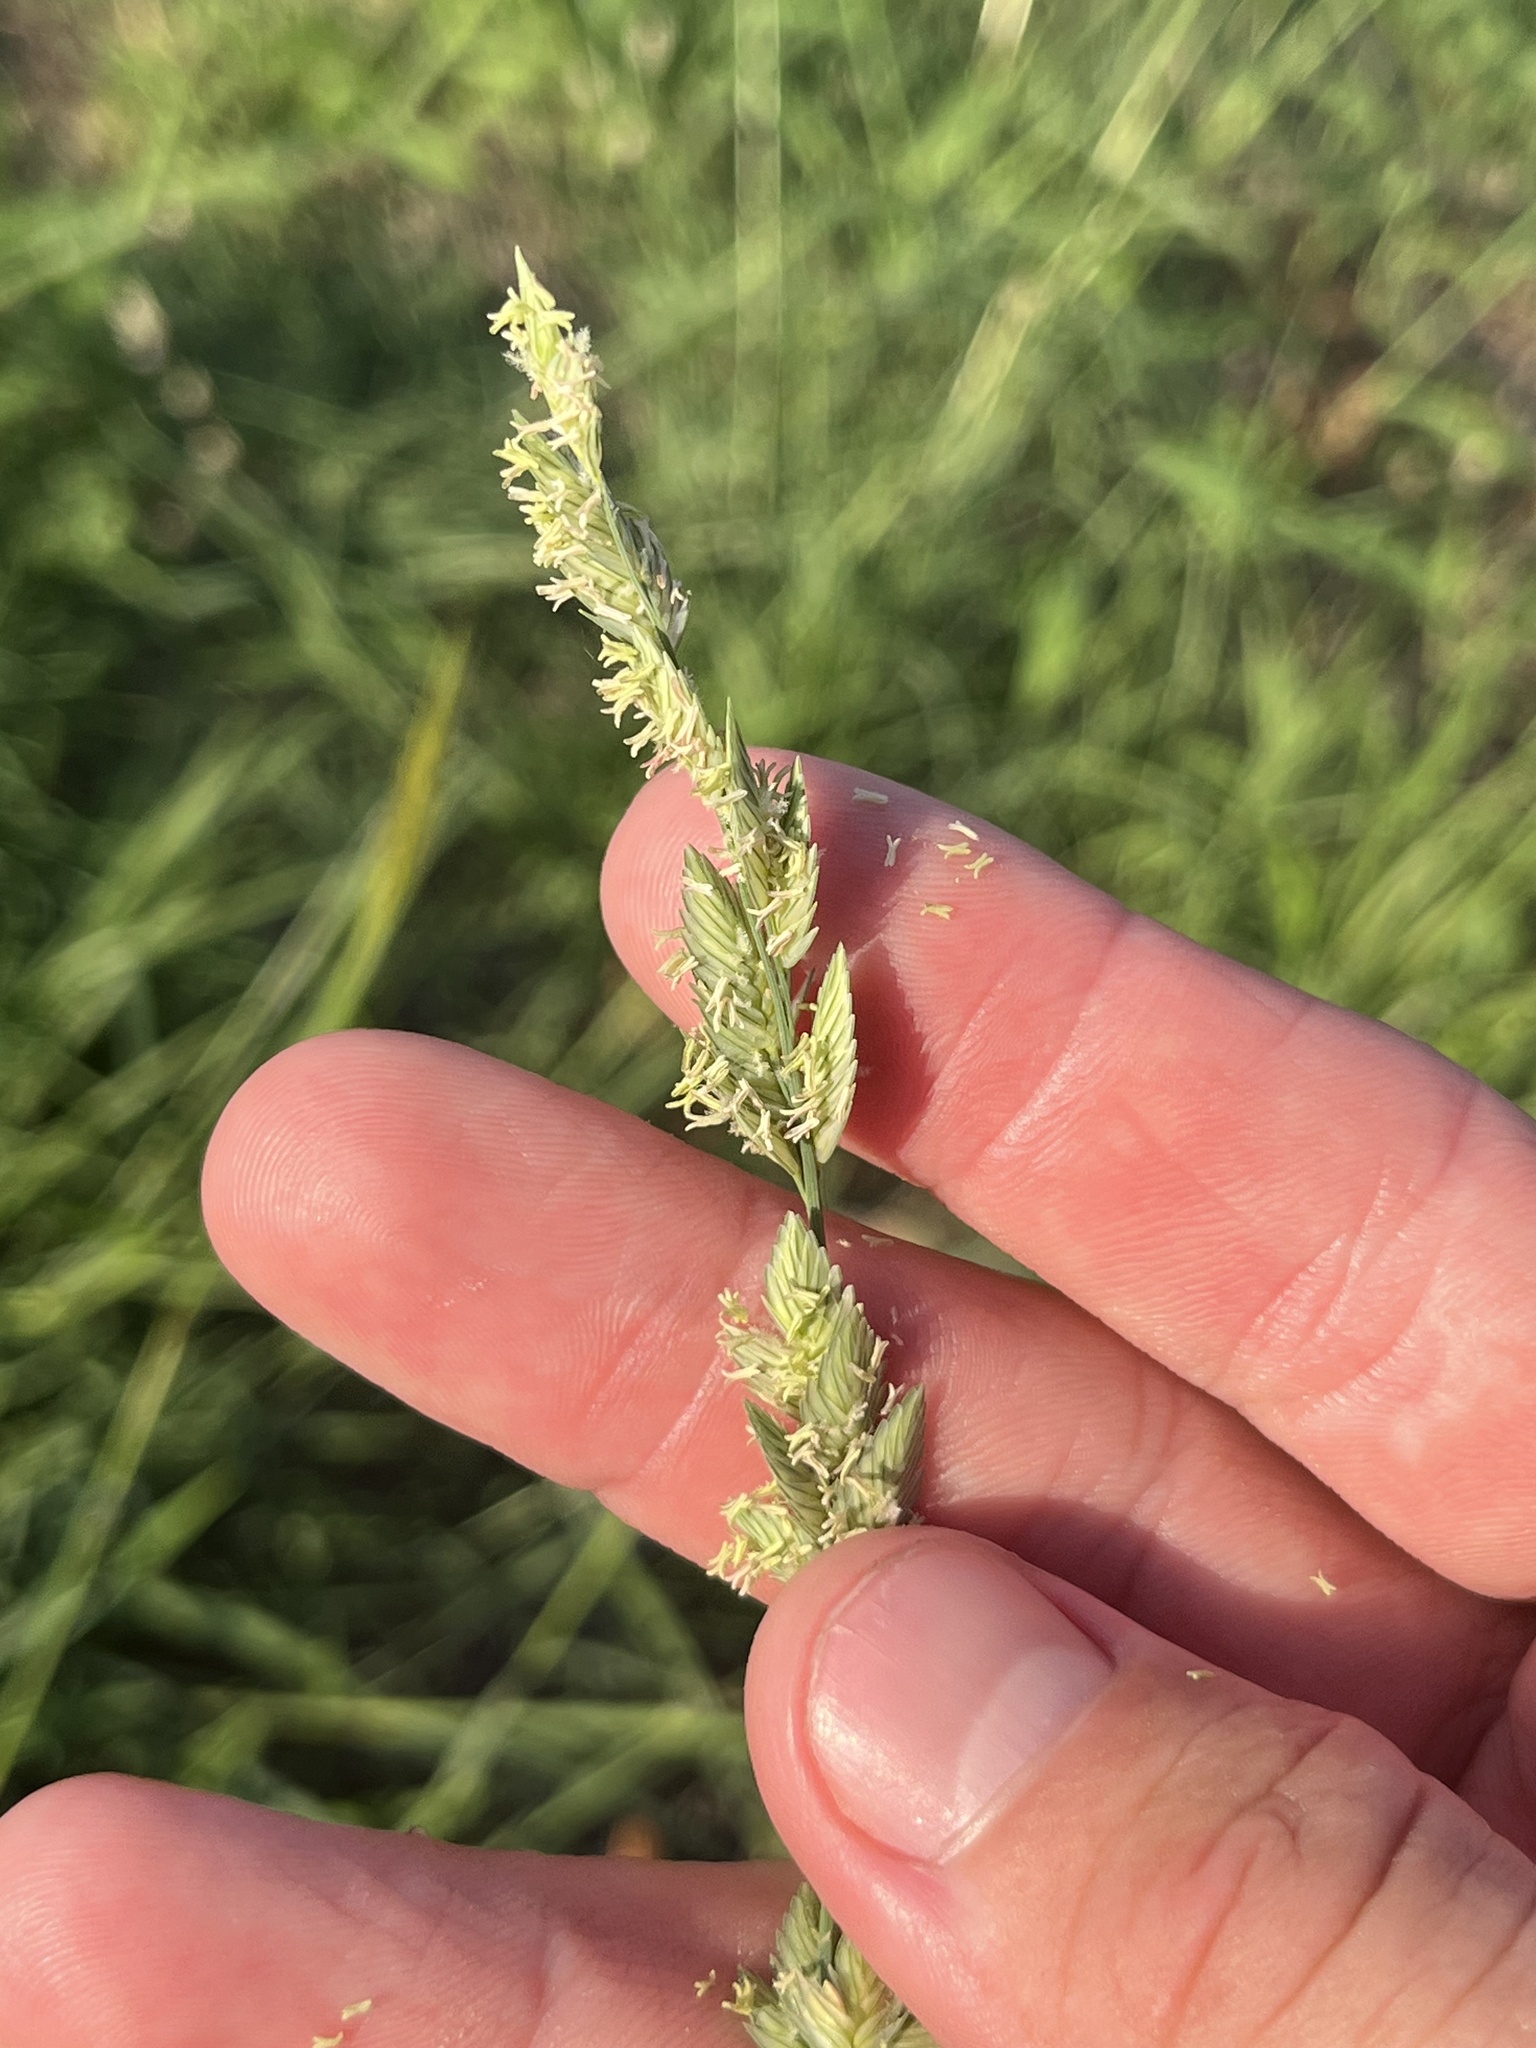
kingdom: Plantae
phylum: Tracheophyta
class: Liliopsida
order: Poales
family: Poaceae
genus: Eragrostis
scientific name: Eragrostis superba
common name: Wilman lovegrass
